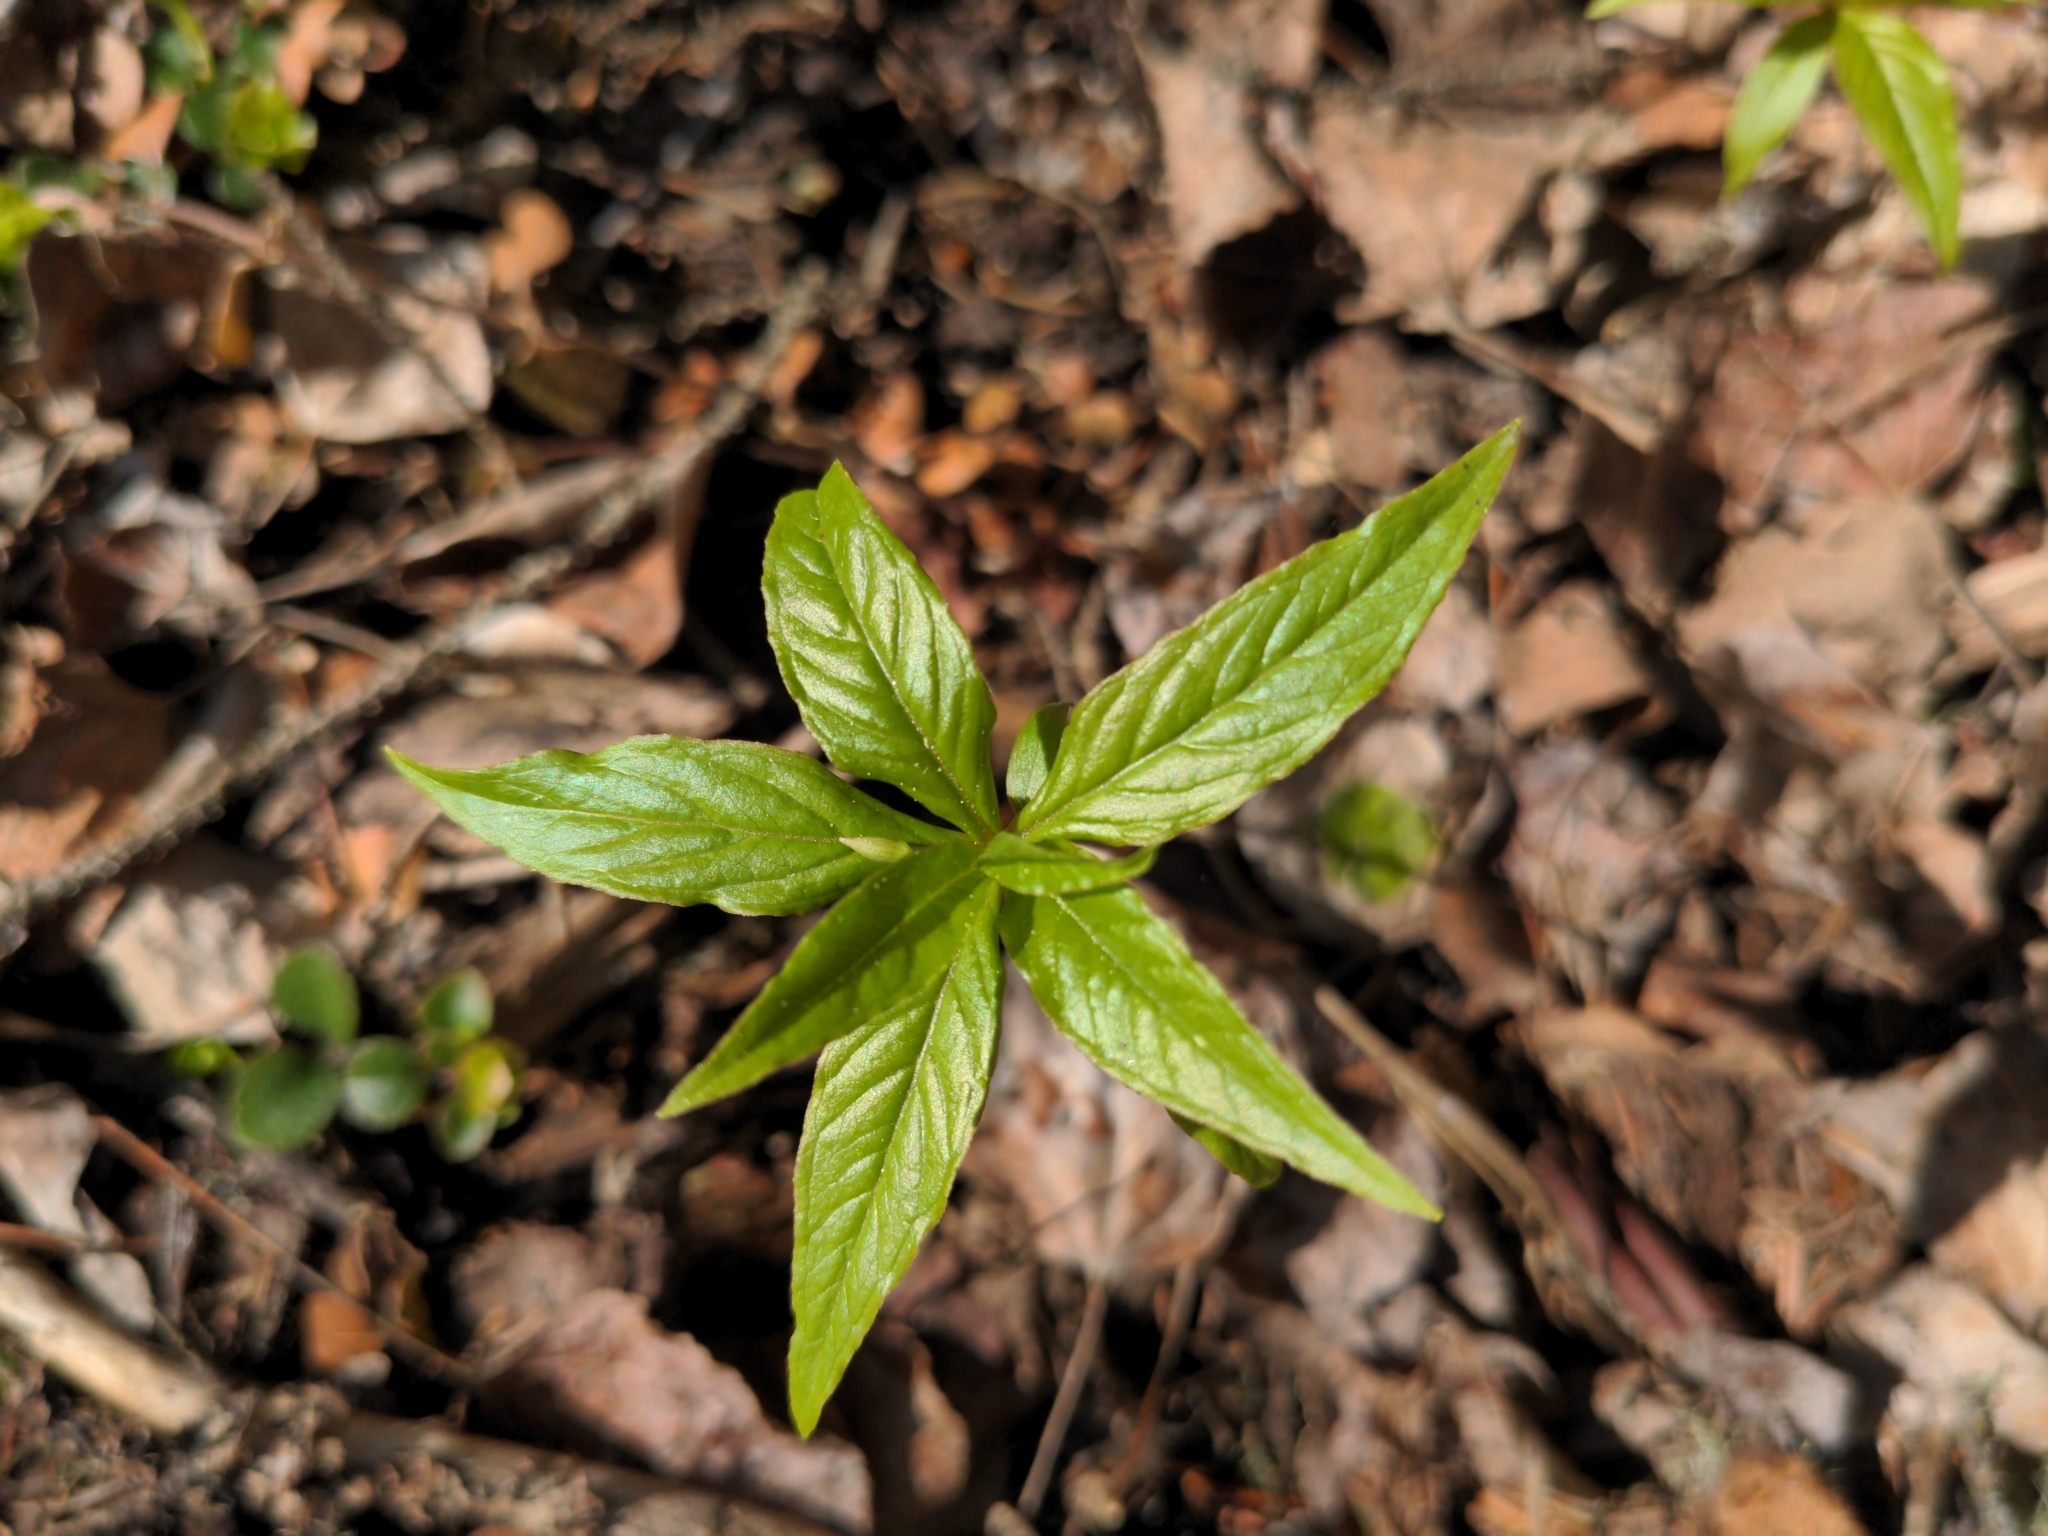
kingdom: Plantae
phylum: Tracheophyta
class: Magnoliopsida
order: Ericales
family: Primulaceae
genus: Lysimachia
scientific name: Lysimachia borealis
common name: American starflower
